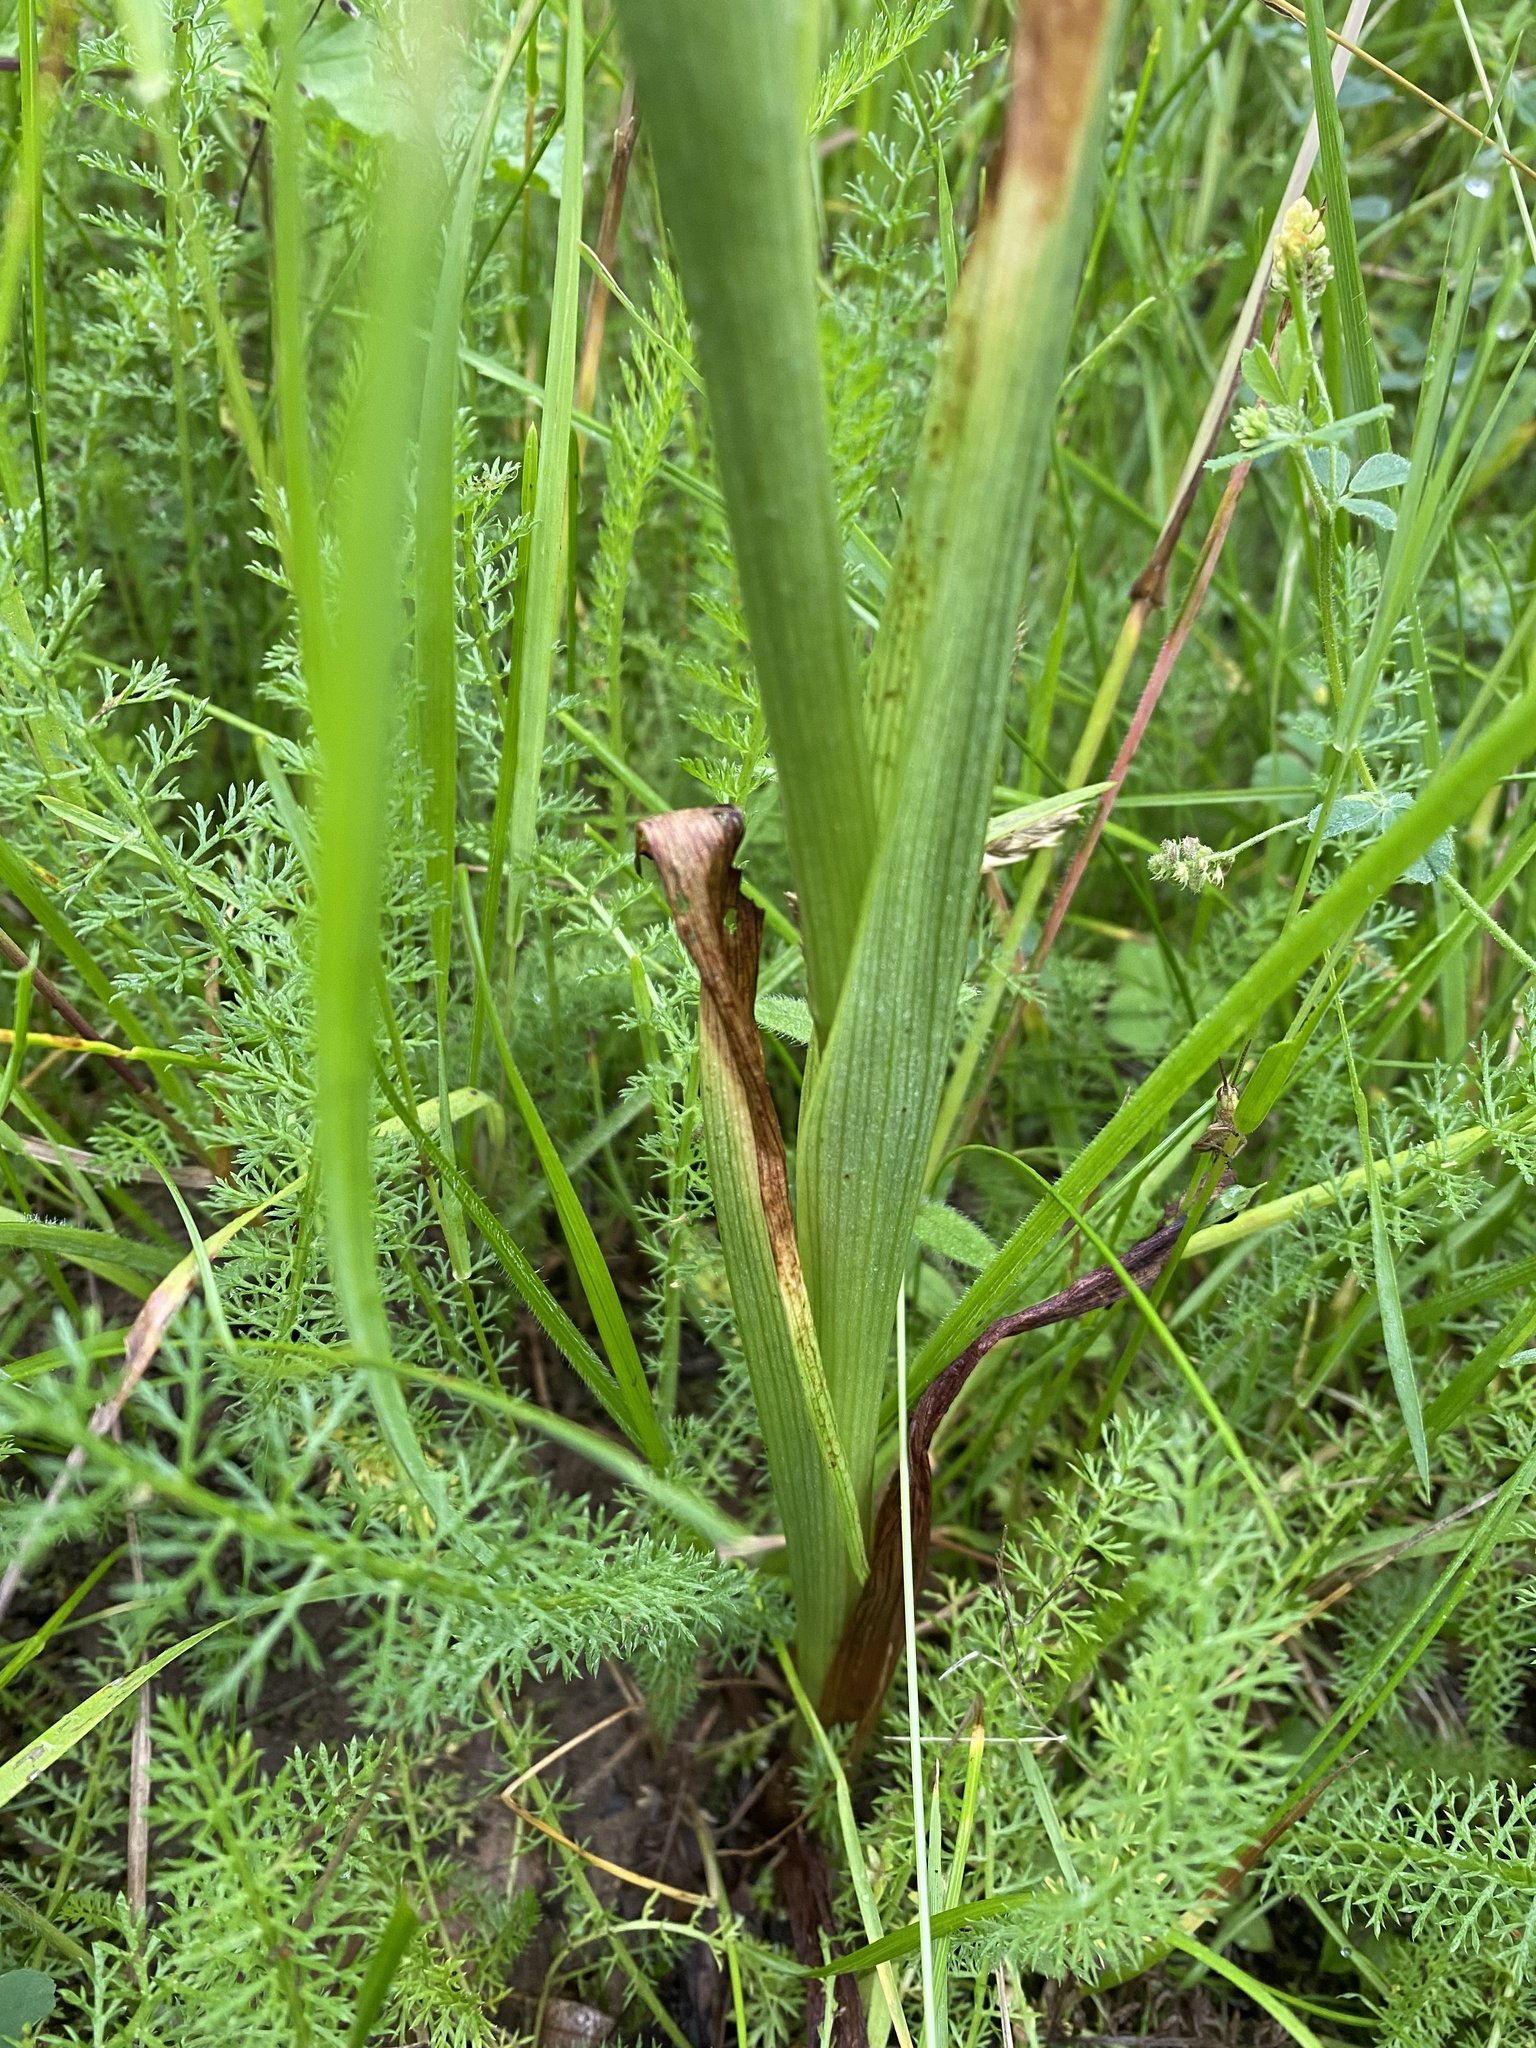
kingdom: Plantae
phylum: Tracheophyta
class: Liliopsida
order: Asparagales
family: Orchidaceae
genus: Anacamptis
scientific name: Anacamptis pyramidalis
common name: Pyramidal orchid
